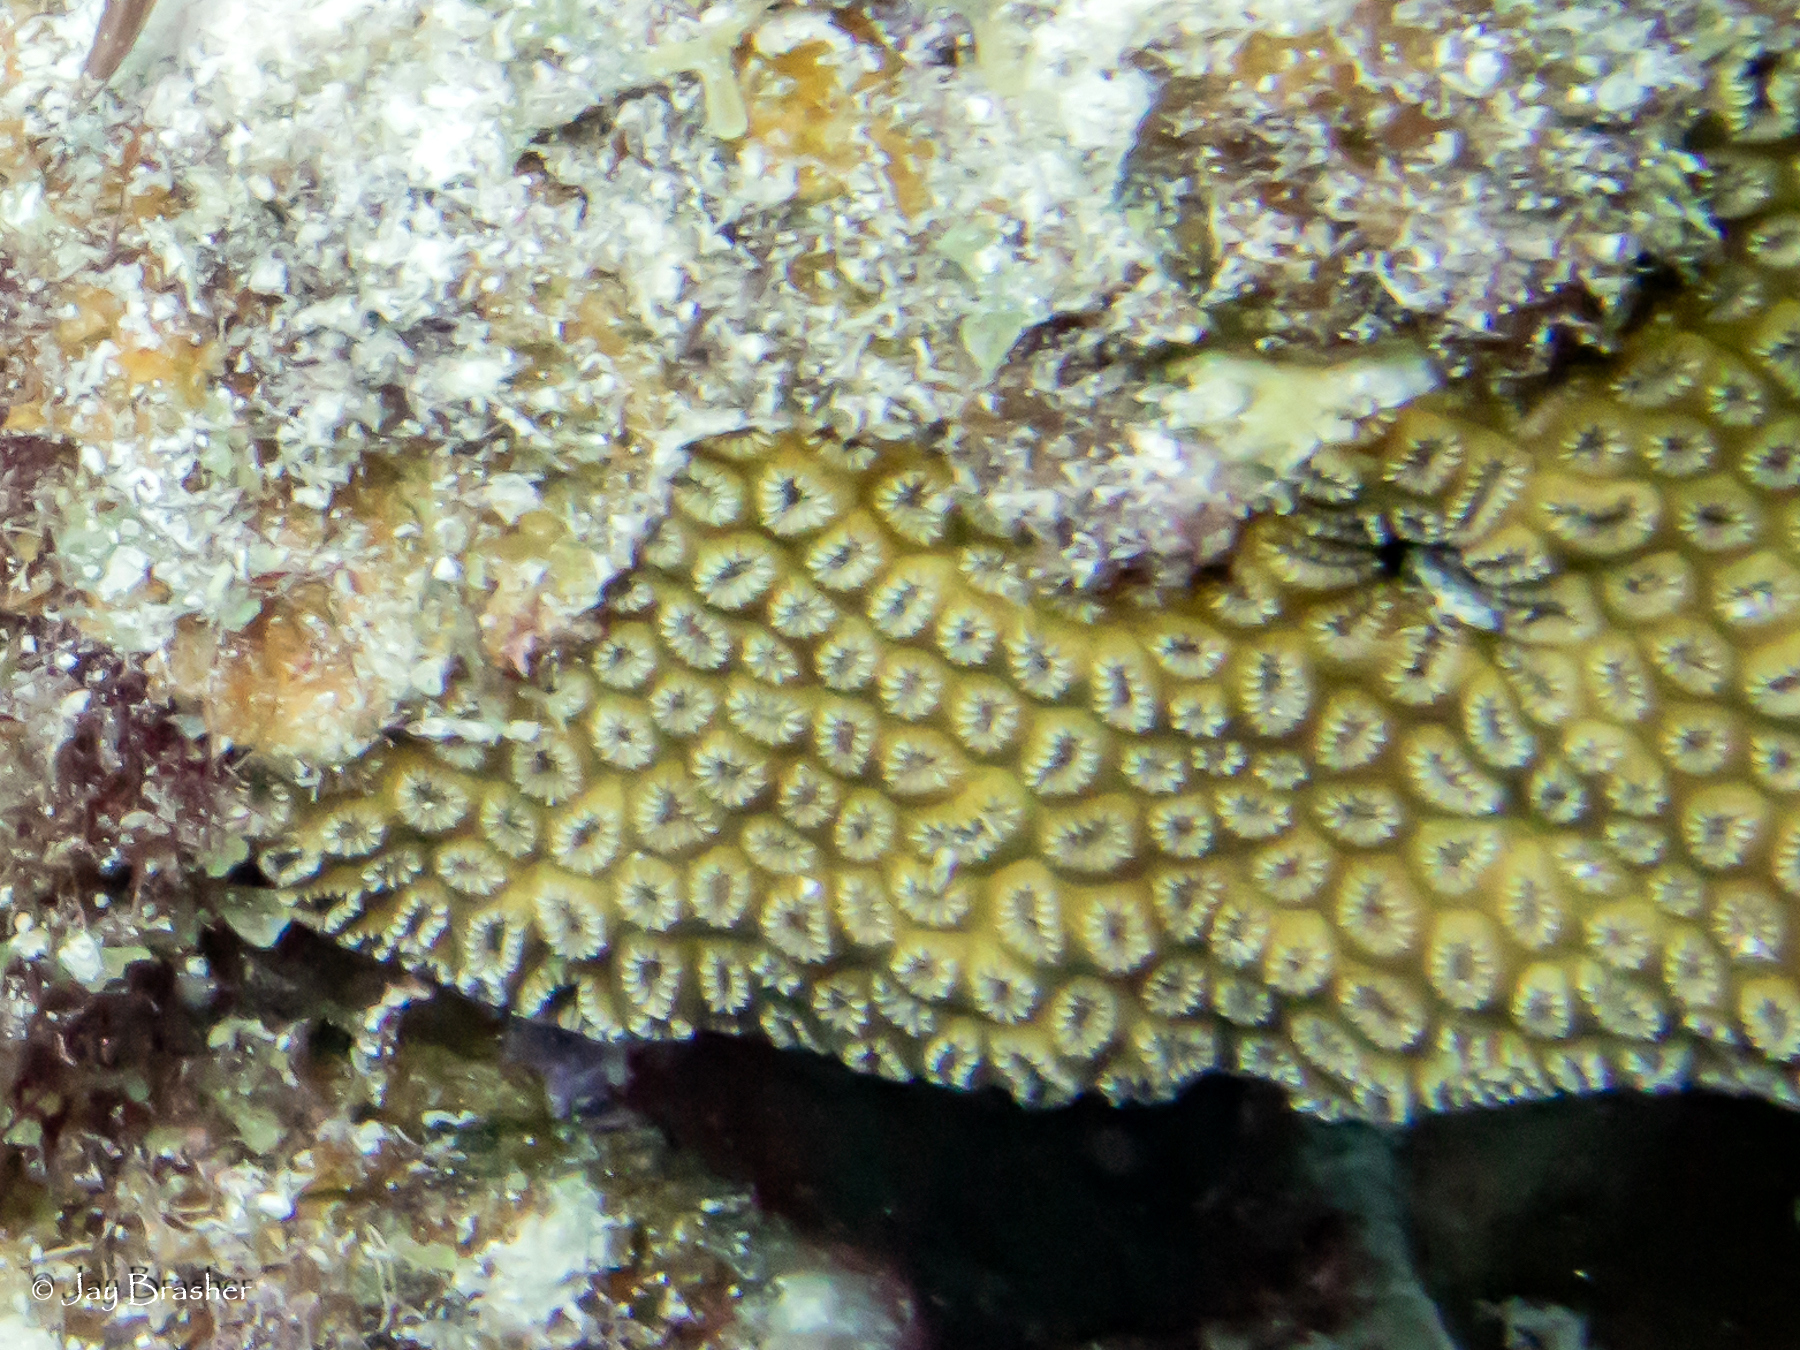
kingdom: Animalia
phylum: Cnidaria
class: Anthozoa
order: Scleractinia
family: Meandrinidae
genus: Dichocoenia
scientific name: Dichocoenia stokesii
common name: Pineapple coral
